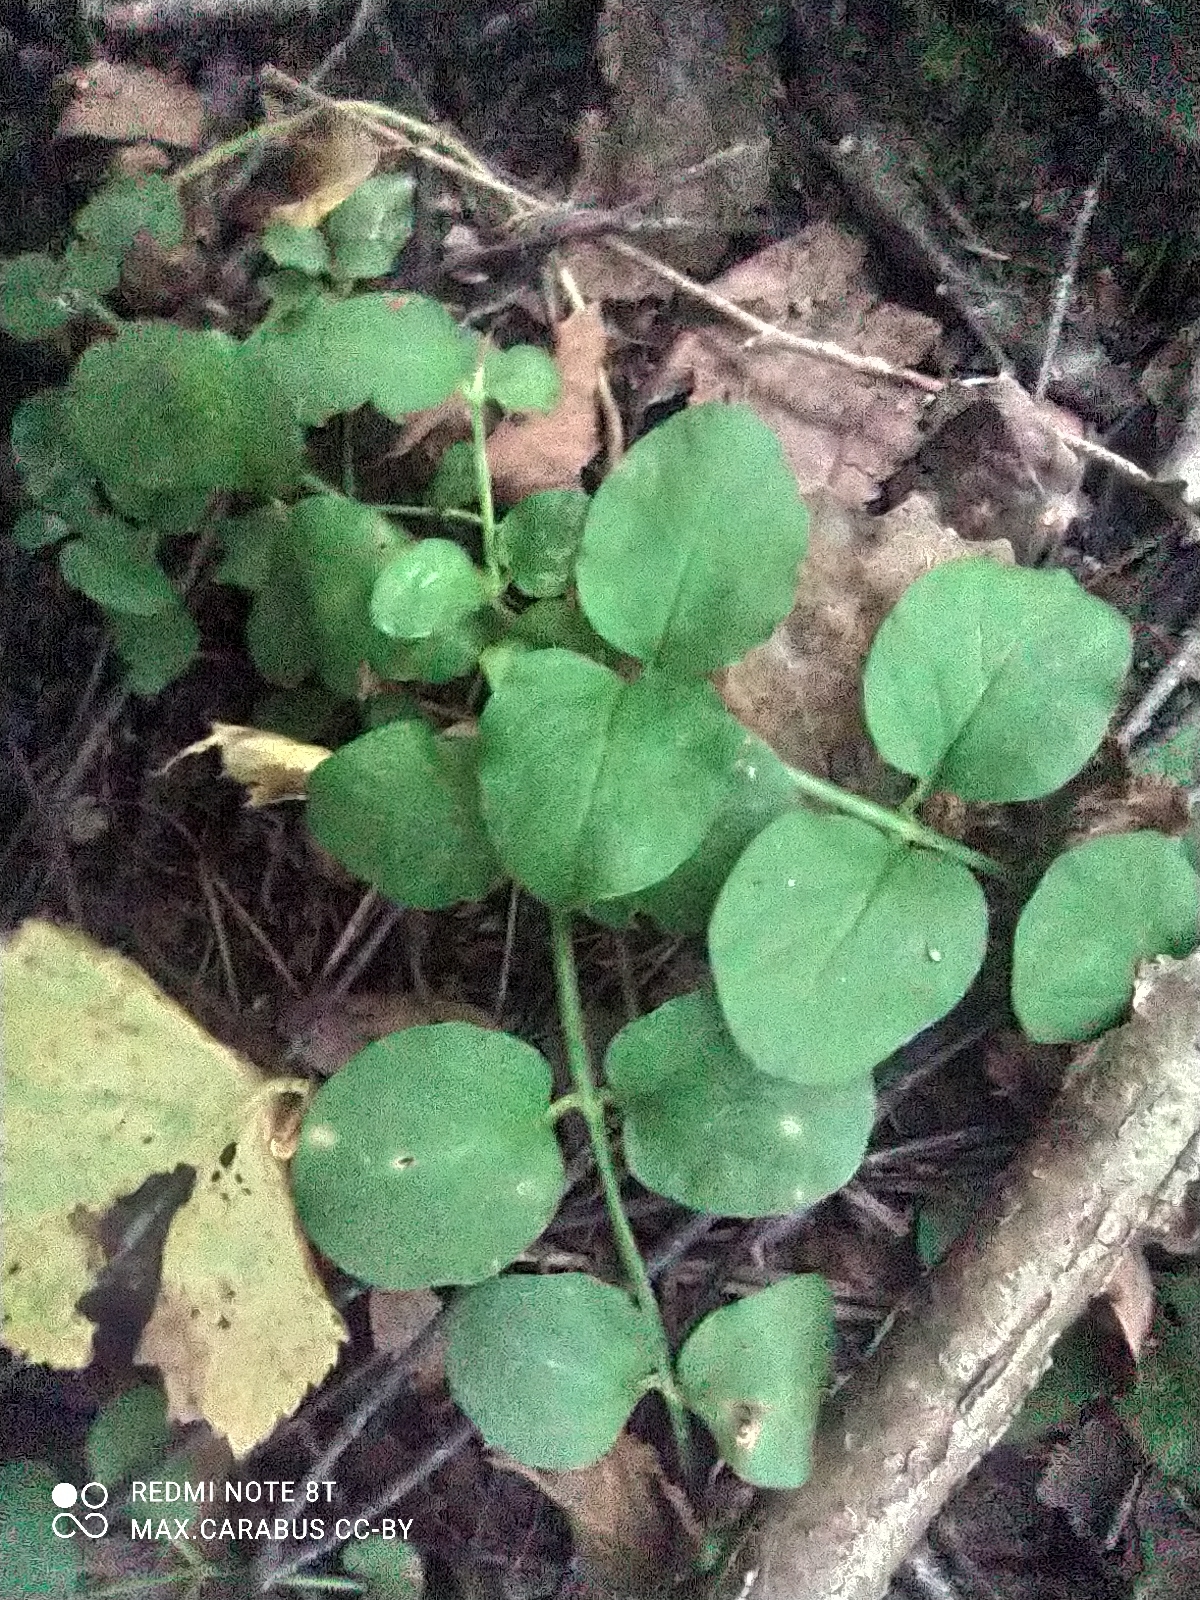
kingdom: Plantae
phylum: Tracheophyta
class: Magnoliopsida
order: Ericales
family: Primulaceae
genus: Lysimachia
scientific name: Lysimachia nummularia
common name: Moneywort
